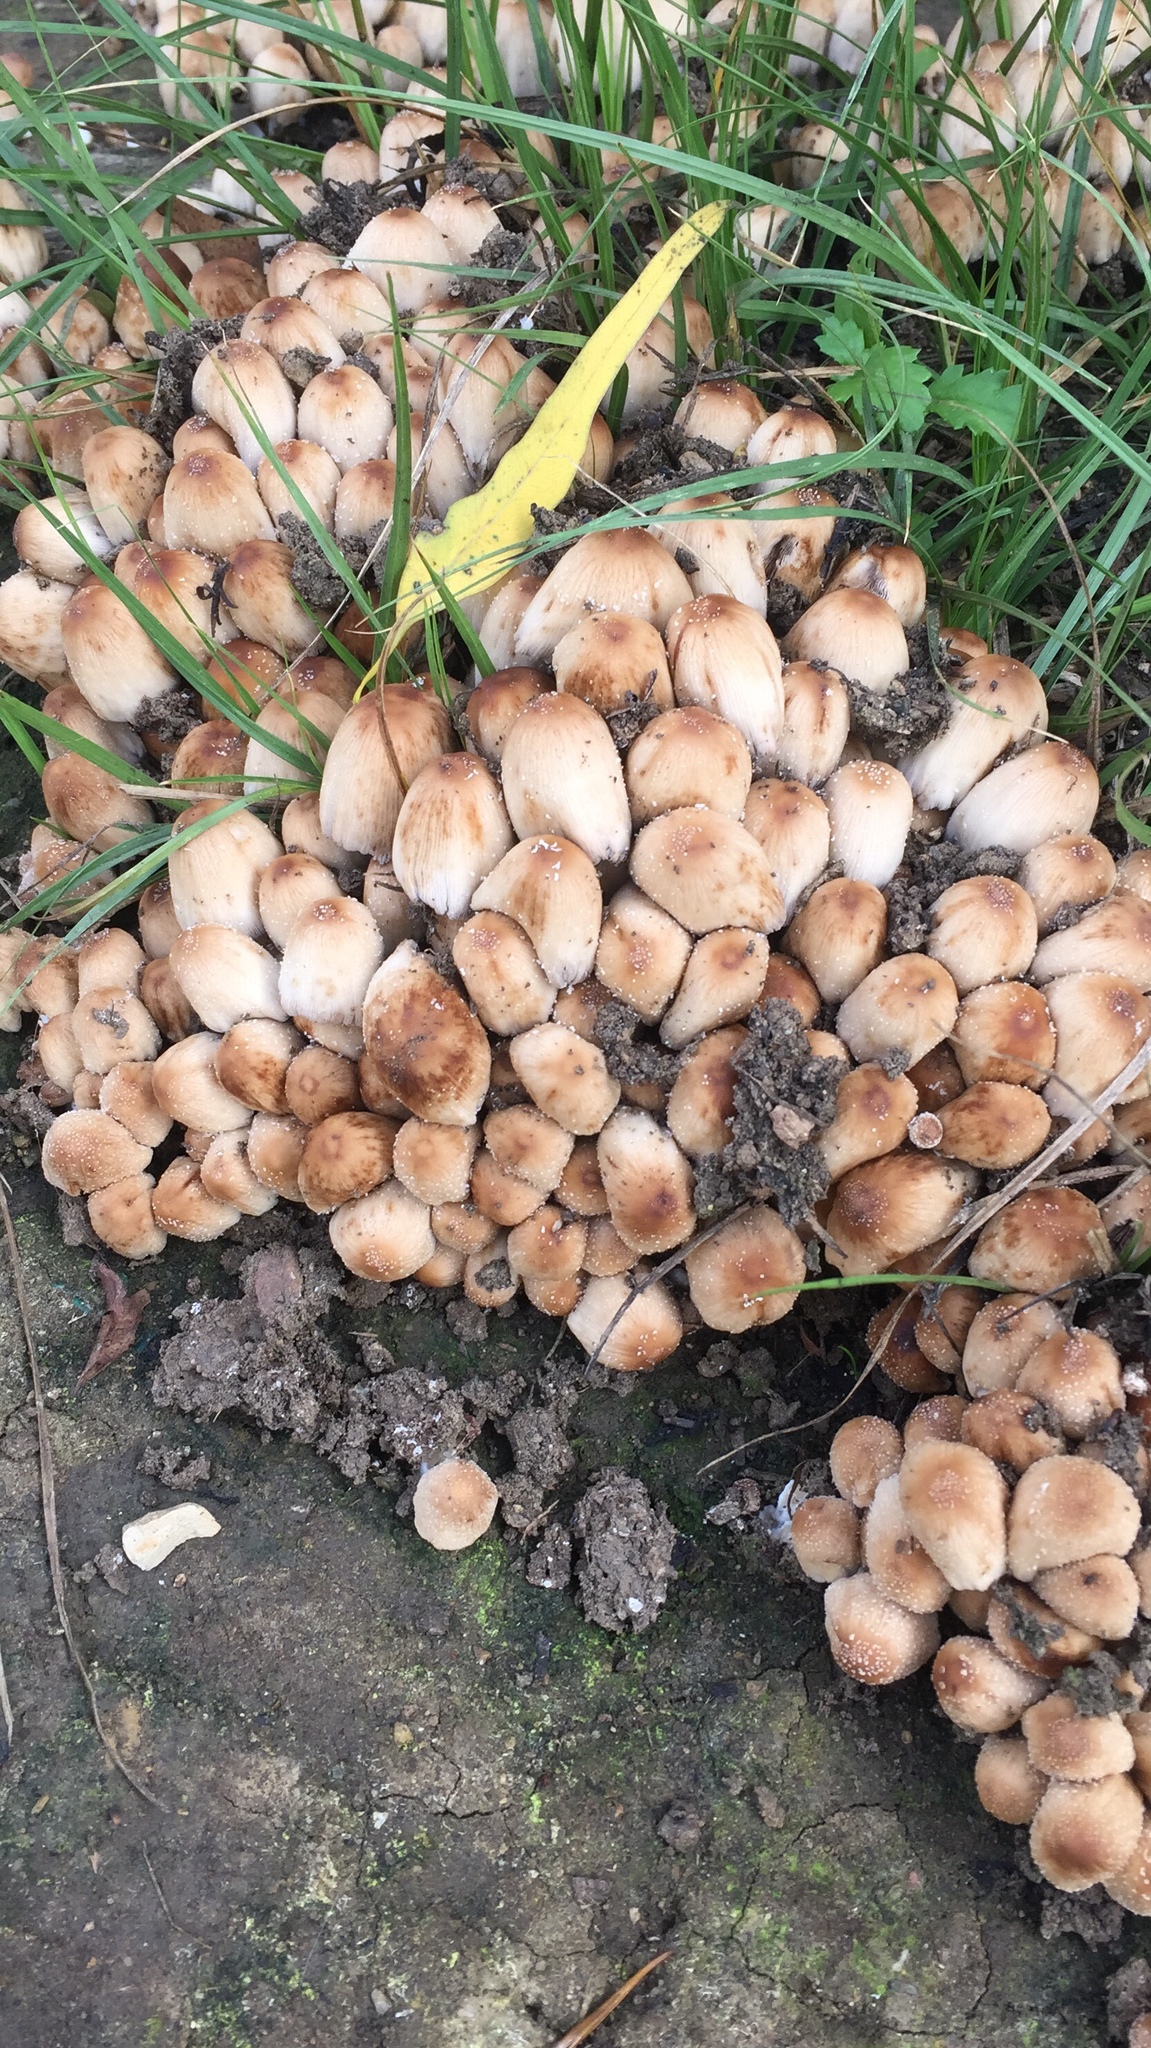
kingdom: Fungi
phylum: Basidiomycota
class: Agaricomycetes
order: Agaricales
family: Psathyrellaceae
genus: Coprinellus
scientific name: Coprinellus micaceus
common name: Glistening ink-cap
